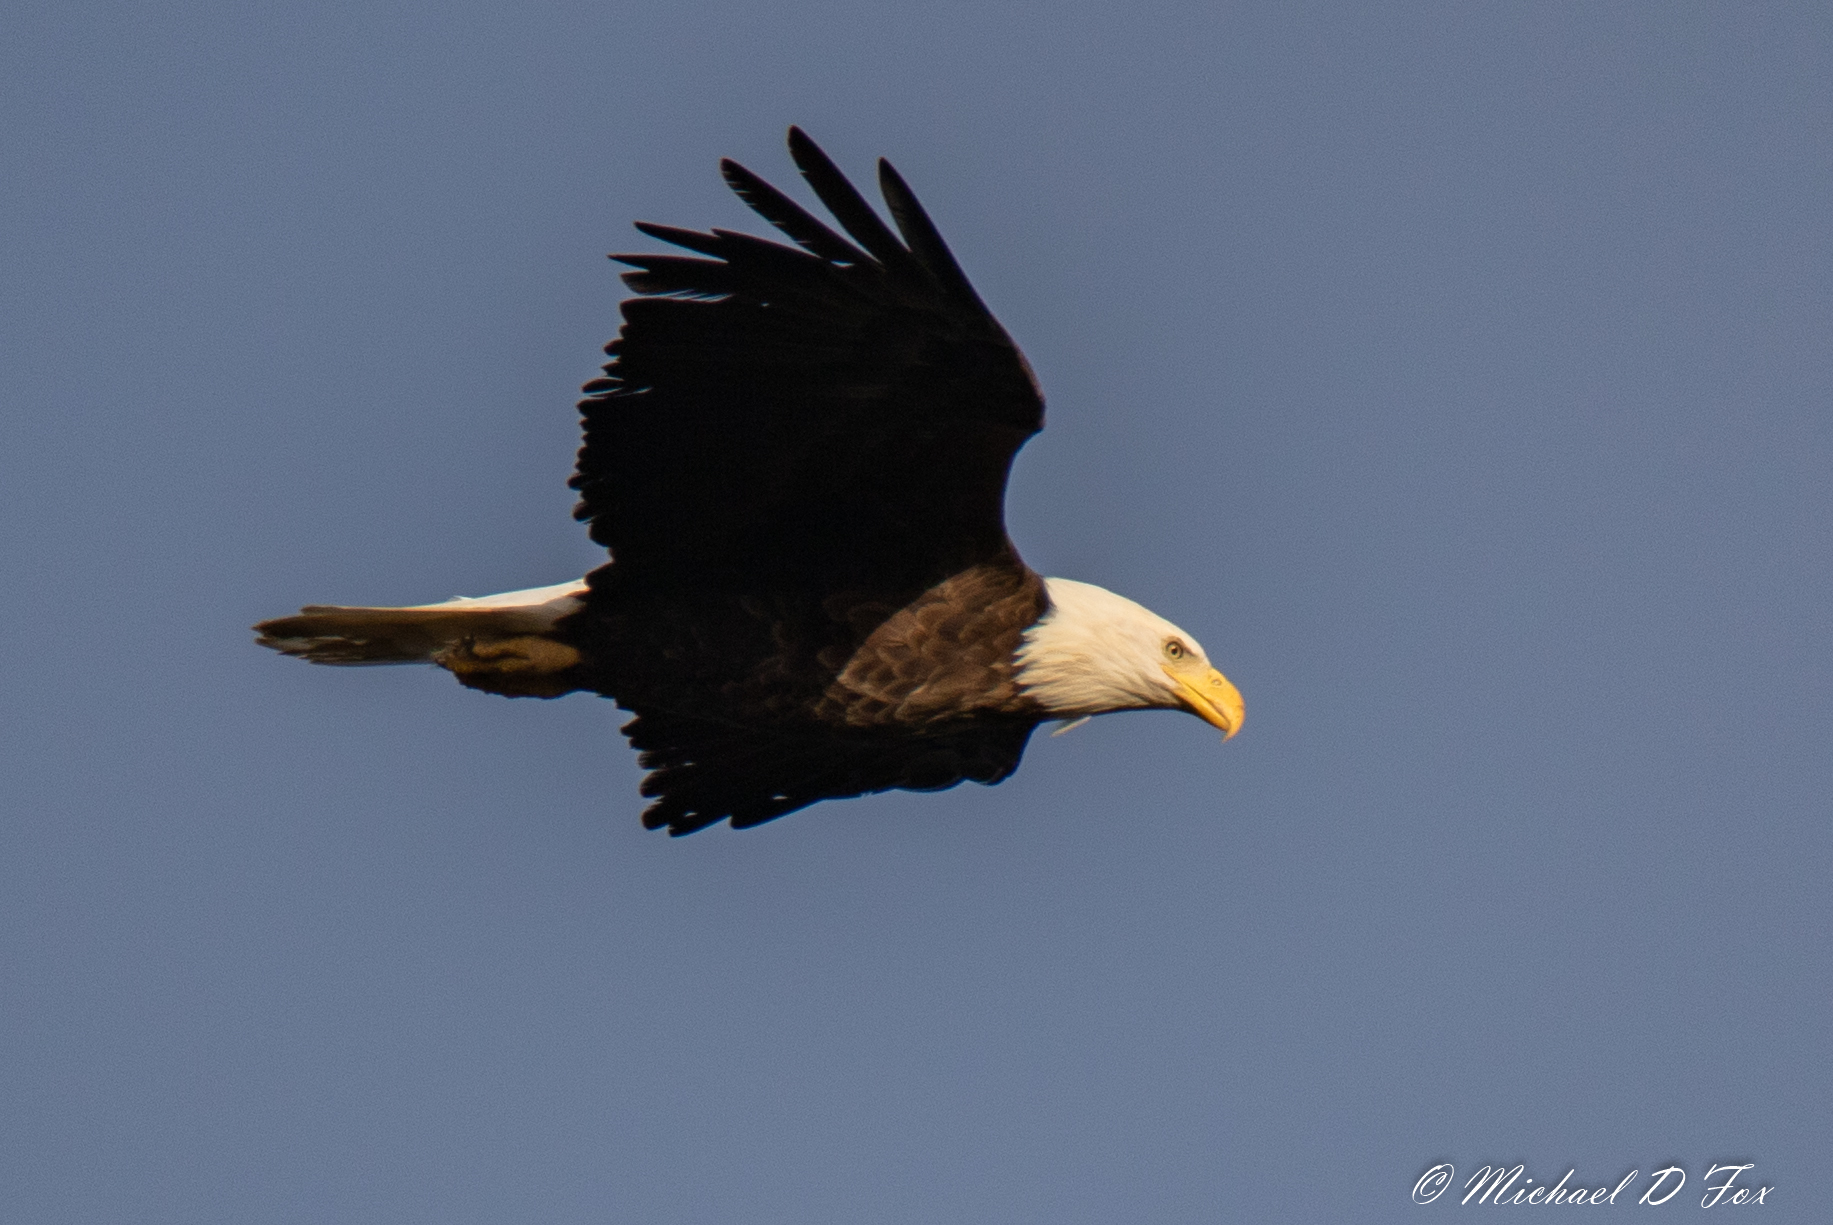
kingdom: Animalia
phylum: Chordata
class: Aves
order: Accipitriformes
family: Accipitridae
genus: Haliaeetus
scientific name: Haliaeetus leucocephalus
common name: Bald eagle
